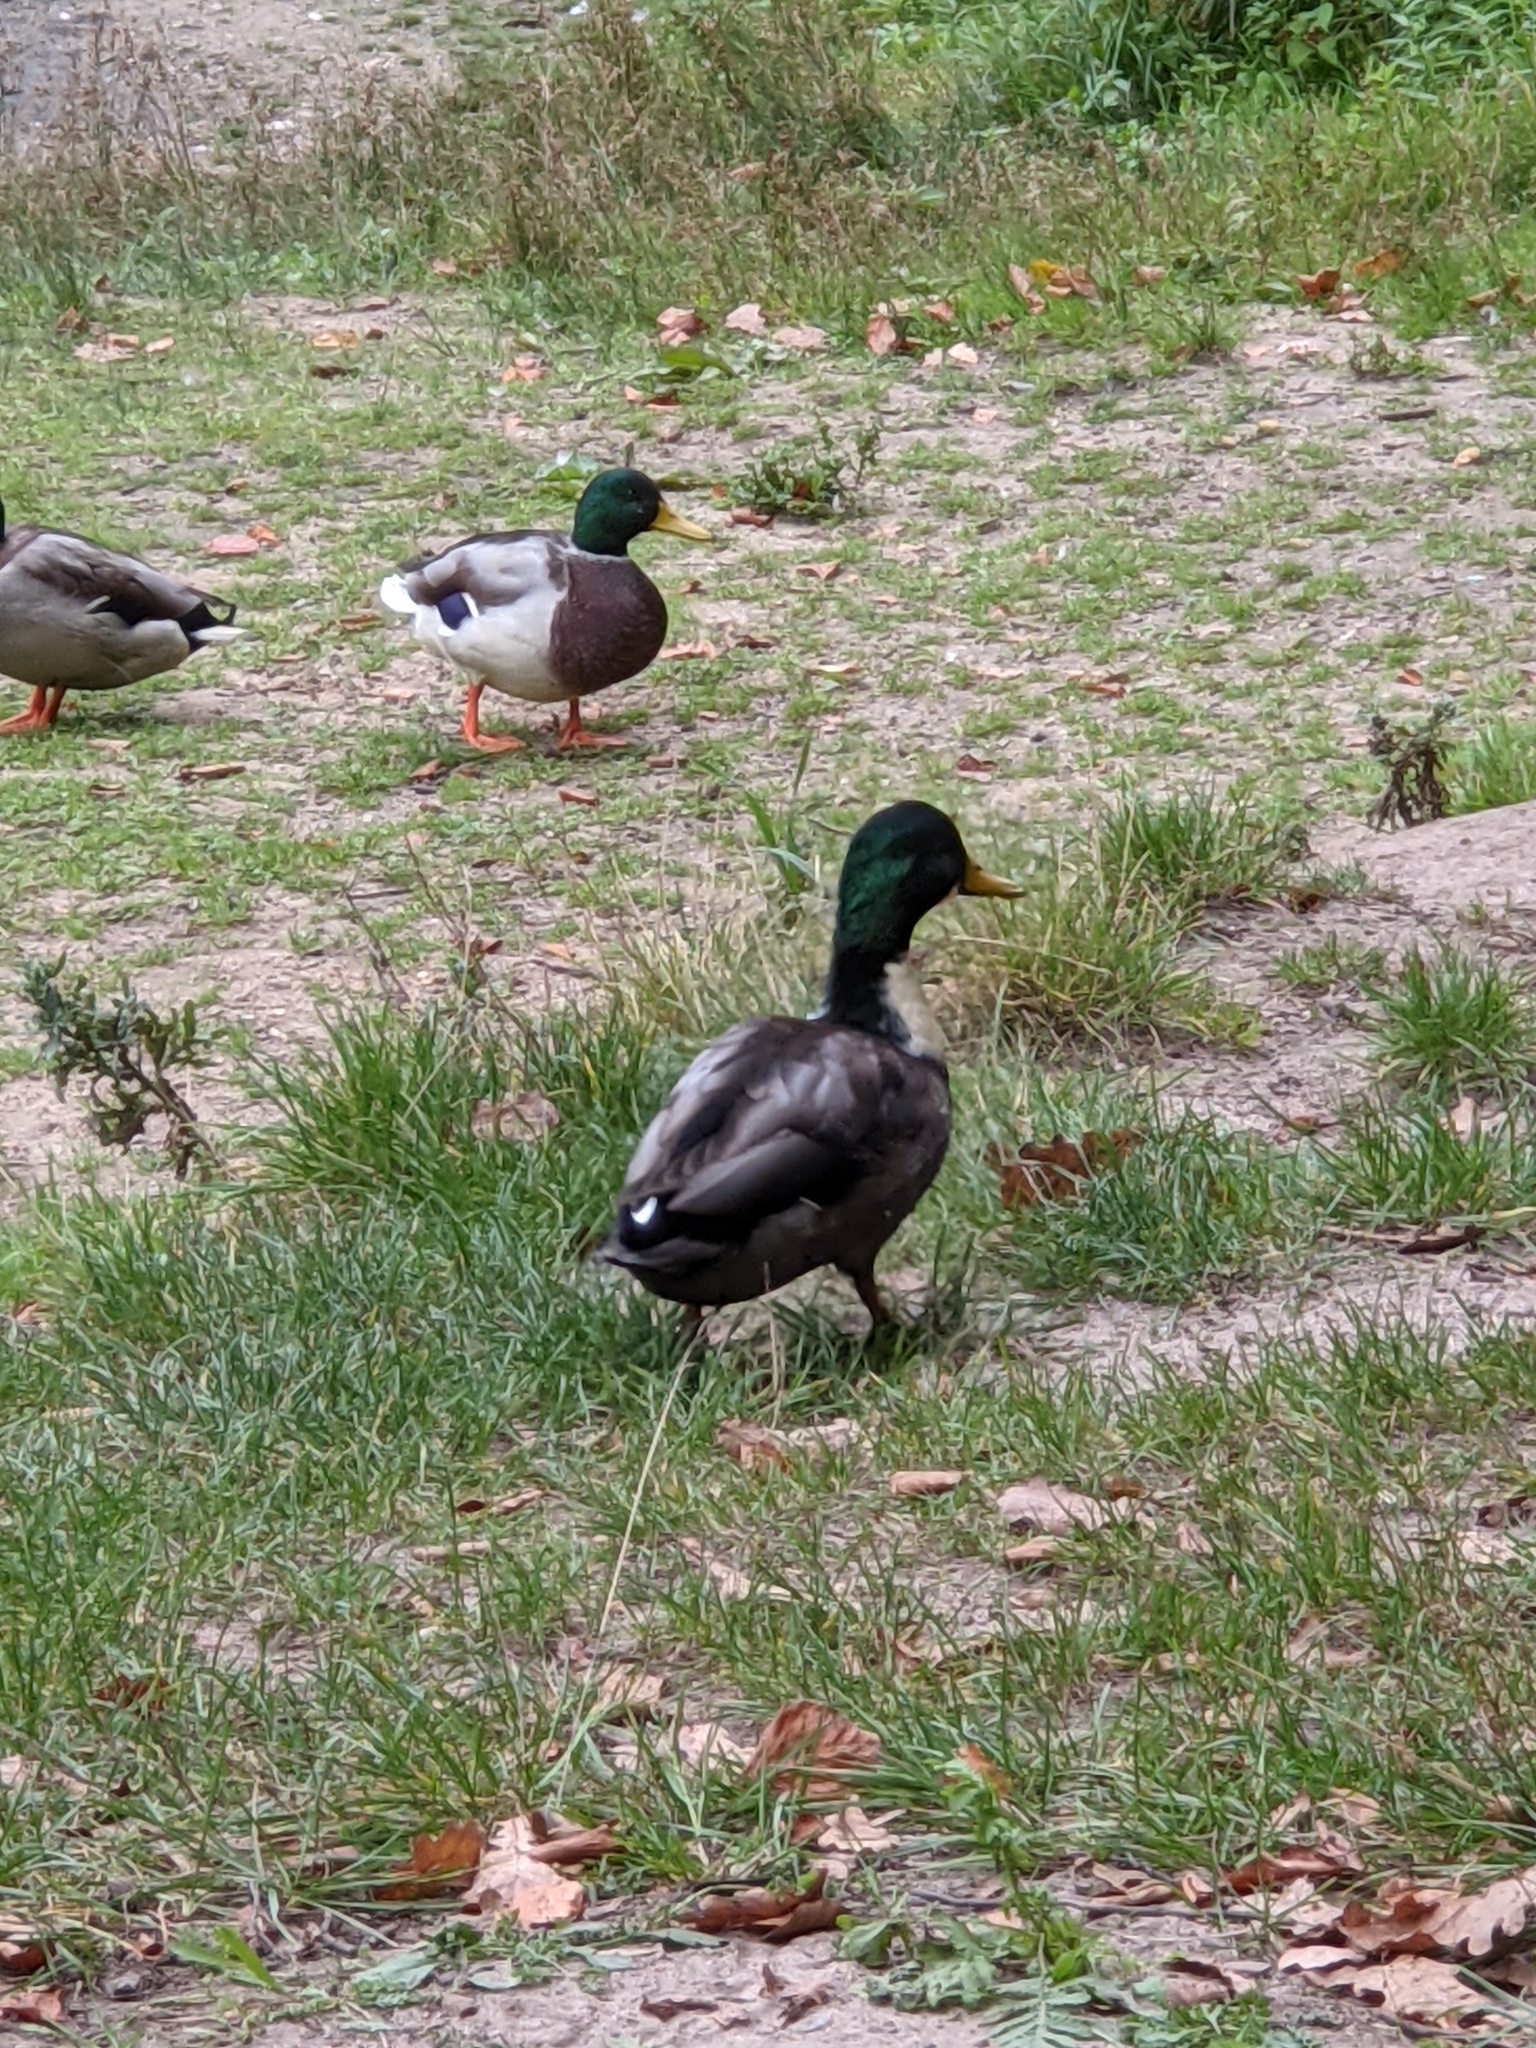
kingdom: Animalia
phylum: Chordata
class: Aves
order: Anseriformes
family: Anatidae
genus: Anas
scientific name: Anas platyrhynchos
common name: Mallard
